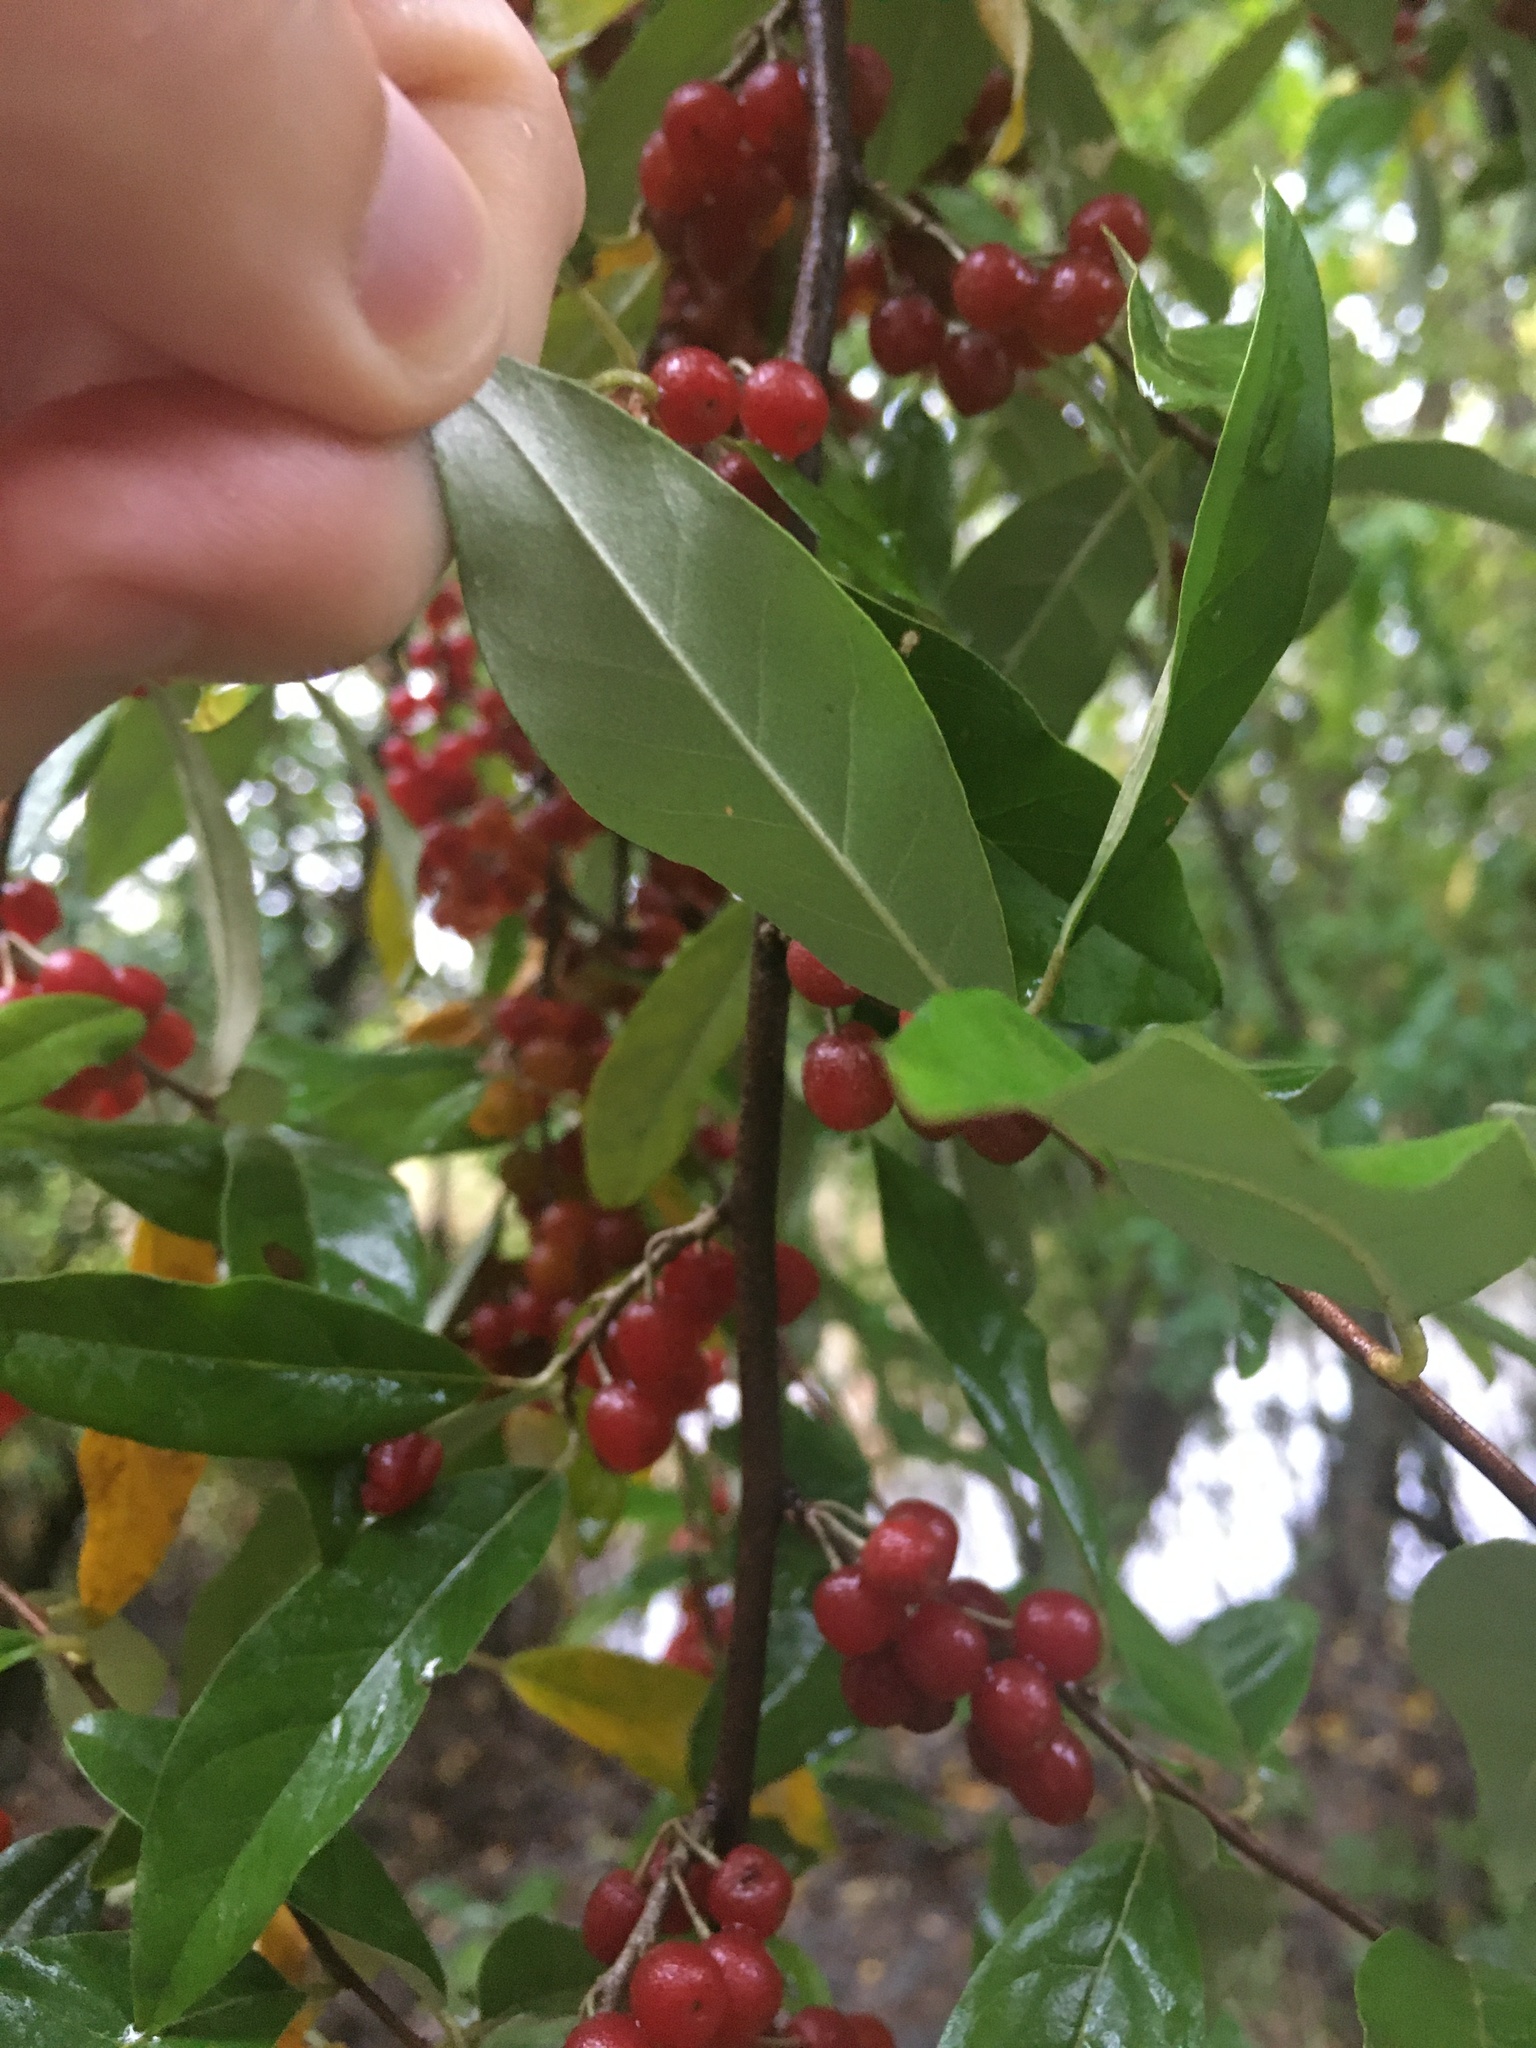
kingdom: Plantae
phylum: Tracheophyta
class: Magnoliopsida
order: Rosales
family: Elaeagnaceae
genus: Elaeagnus
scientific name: Elaeagnus umbellata
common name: Autumn olive
